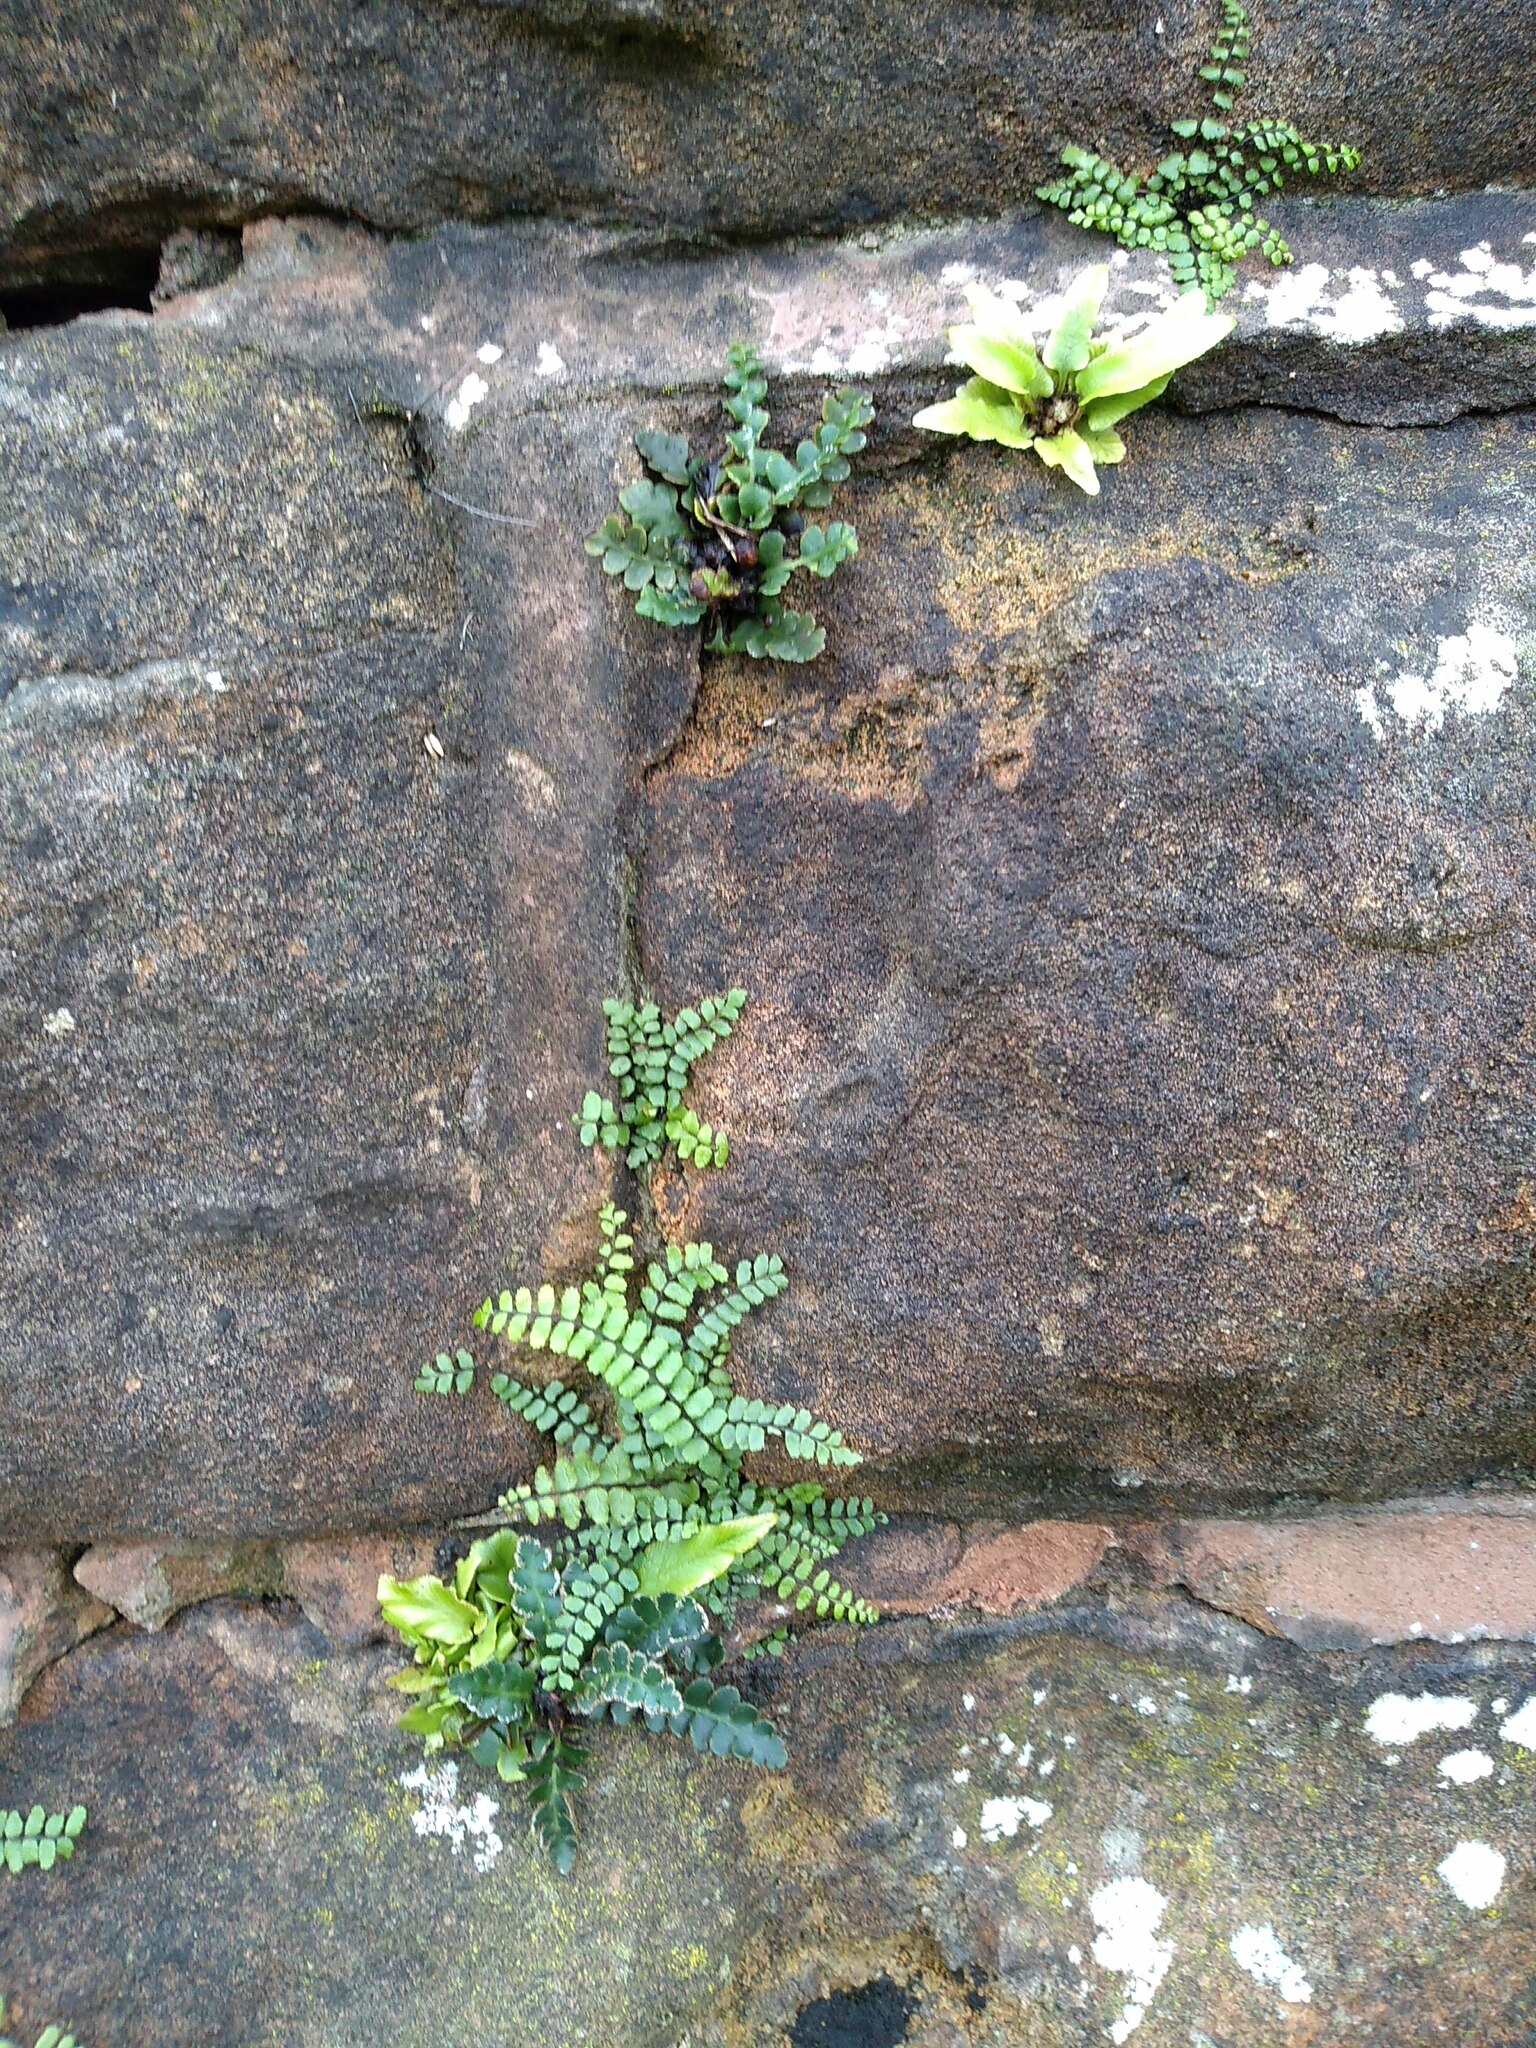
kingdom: Plantae
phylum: Tracheophyta
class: Polypodiopsida
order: Polypodiales
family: Aspleniaceae
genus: Asplenium
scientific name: Asplenium ceterach
